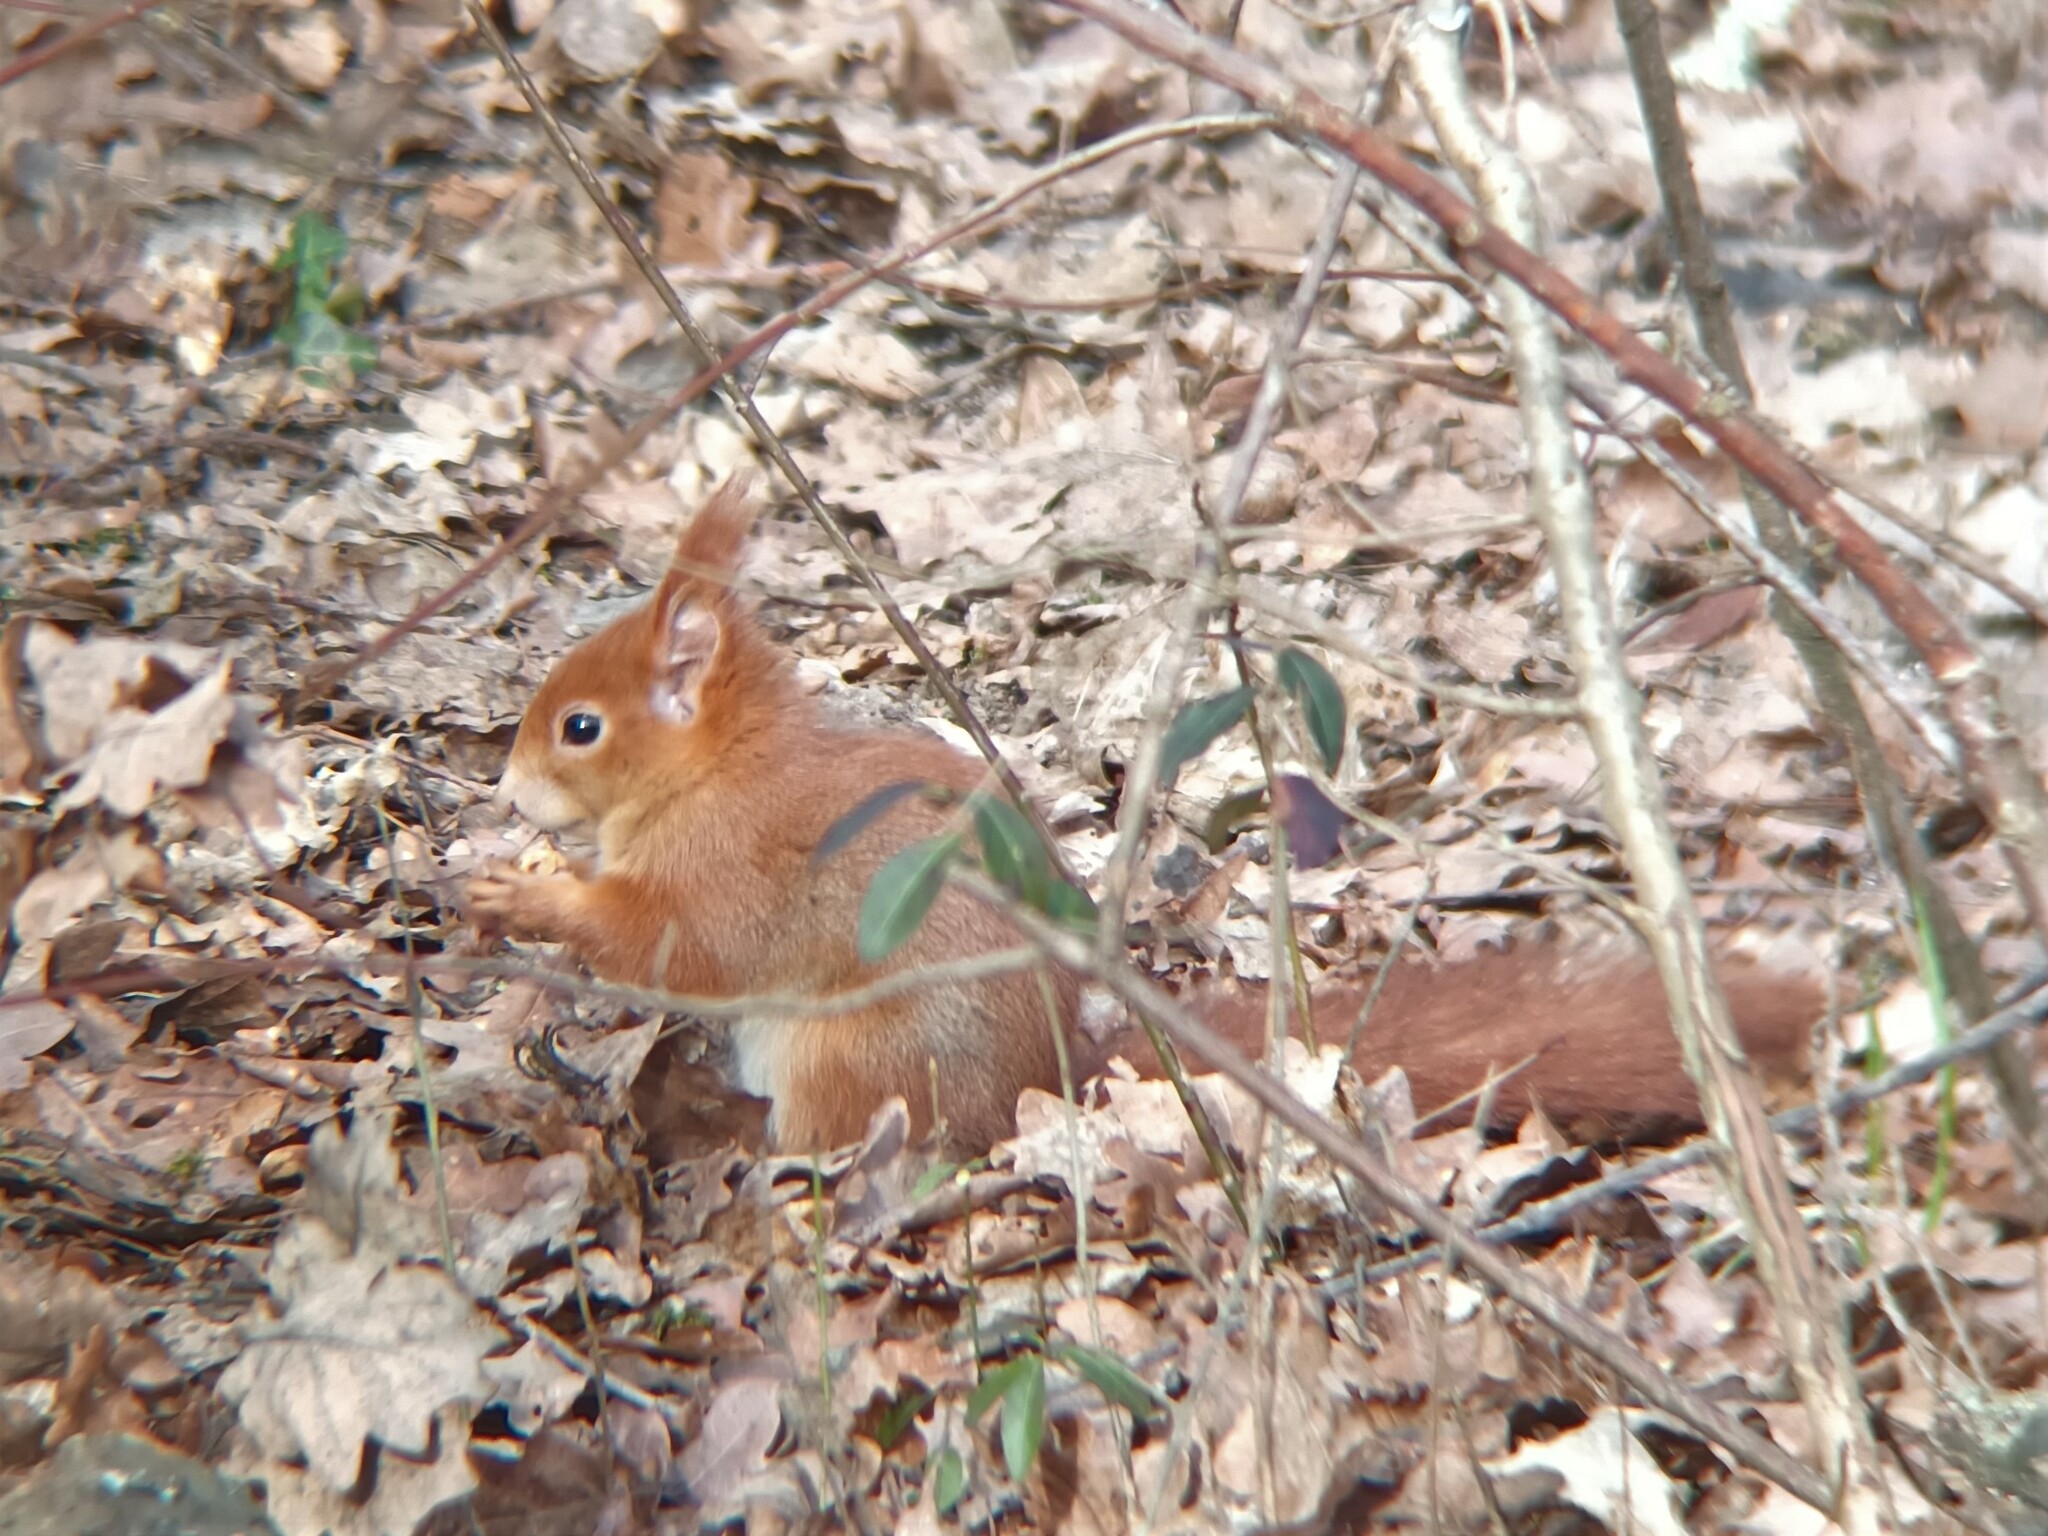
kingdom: Animalia
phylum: Chordata
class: Mammalia
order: Rodentia
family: Sciuridae
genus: Sciurus
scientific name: Sciurus vulgaris
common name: Eurasian red squirrel
